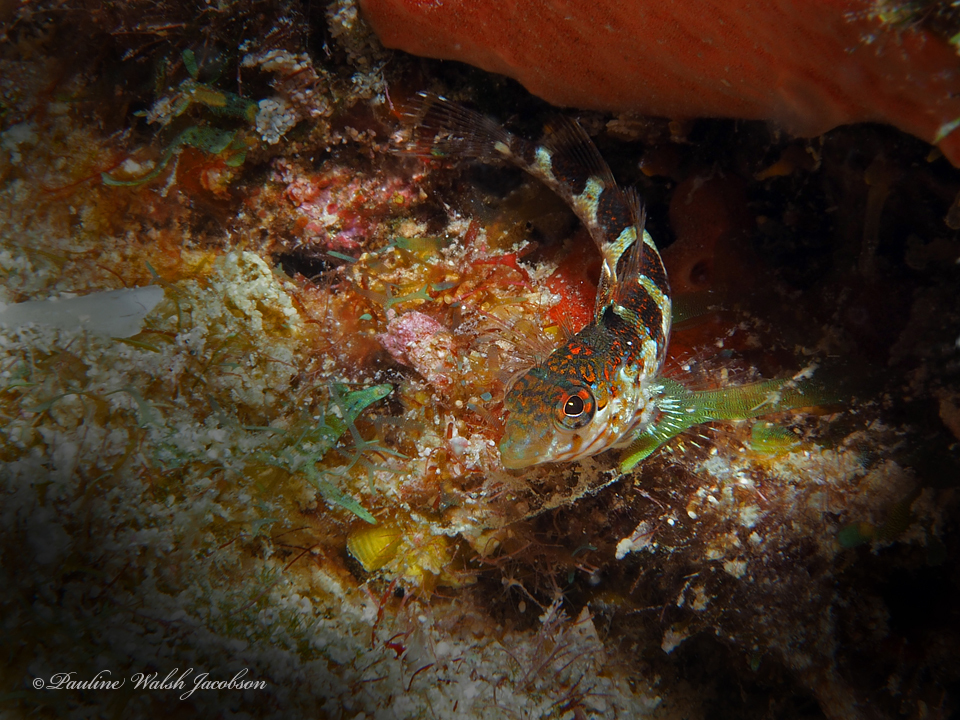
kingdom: Animalia
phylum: Chordata
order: Perciformes
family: Labrisomidae
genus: Malacoctenus
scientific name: Malacoctenus triangulatus
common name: Saddled blenny
